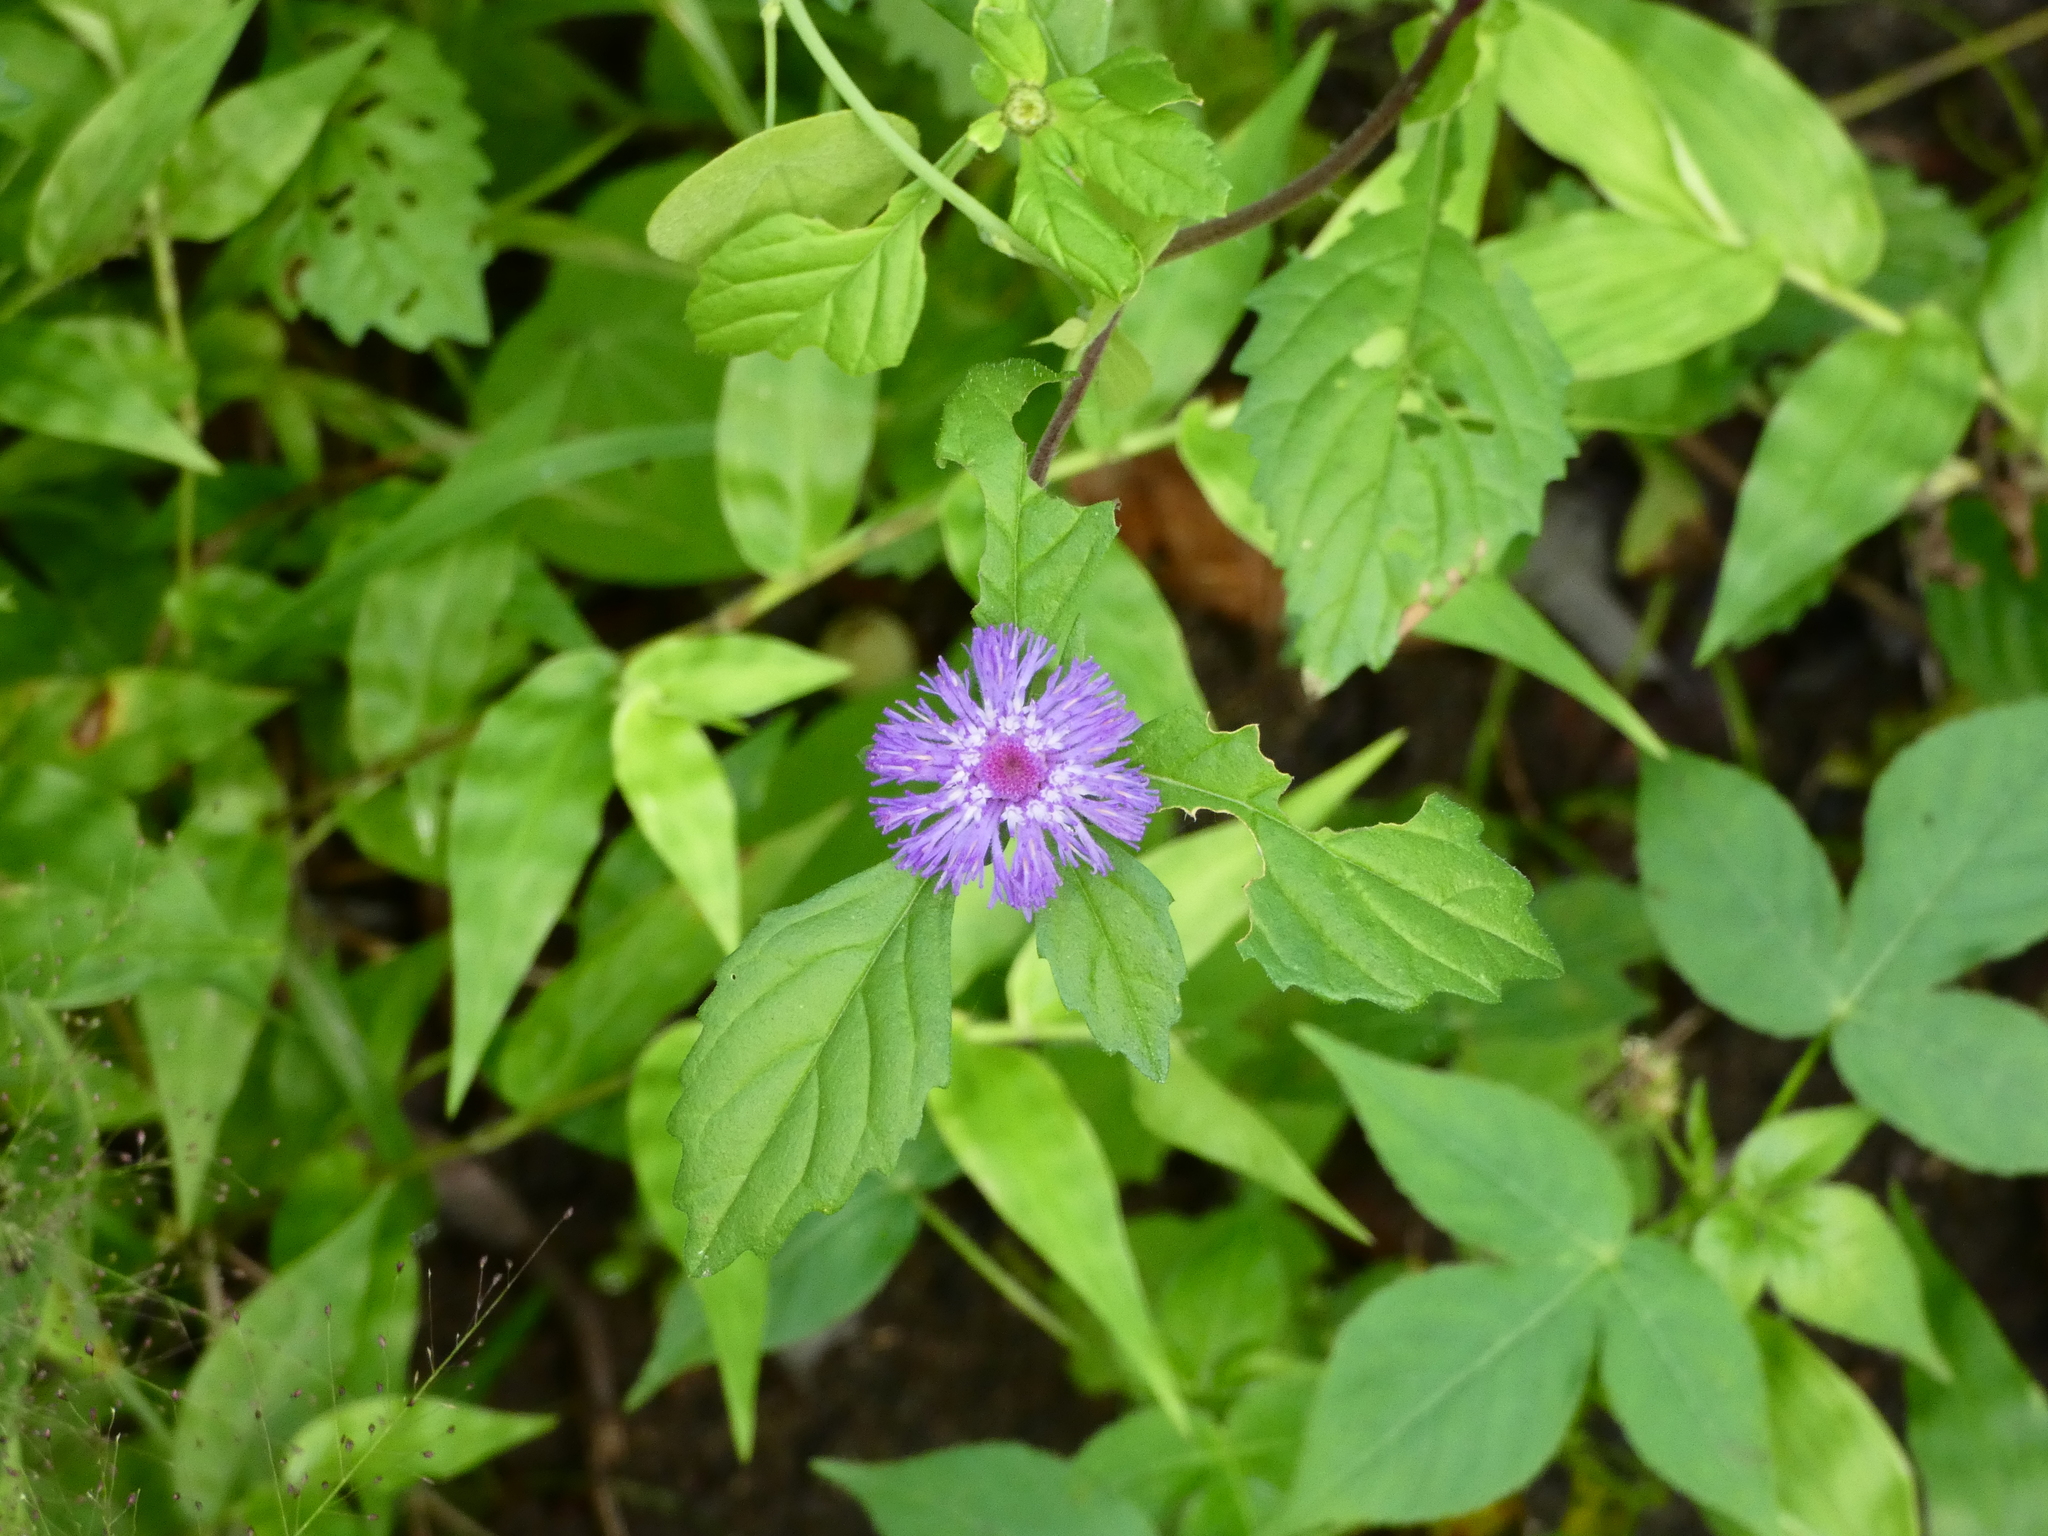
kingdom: Plantae
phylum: Tracheophyta
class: Magnoliopsida
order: Asterales
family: Asteraceae
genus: Centratherum
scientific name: Centratherum punctatum
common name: Larkdaisy
